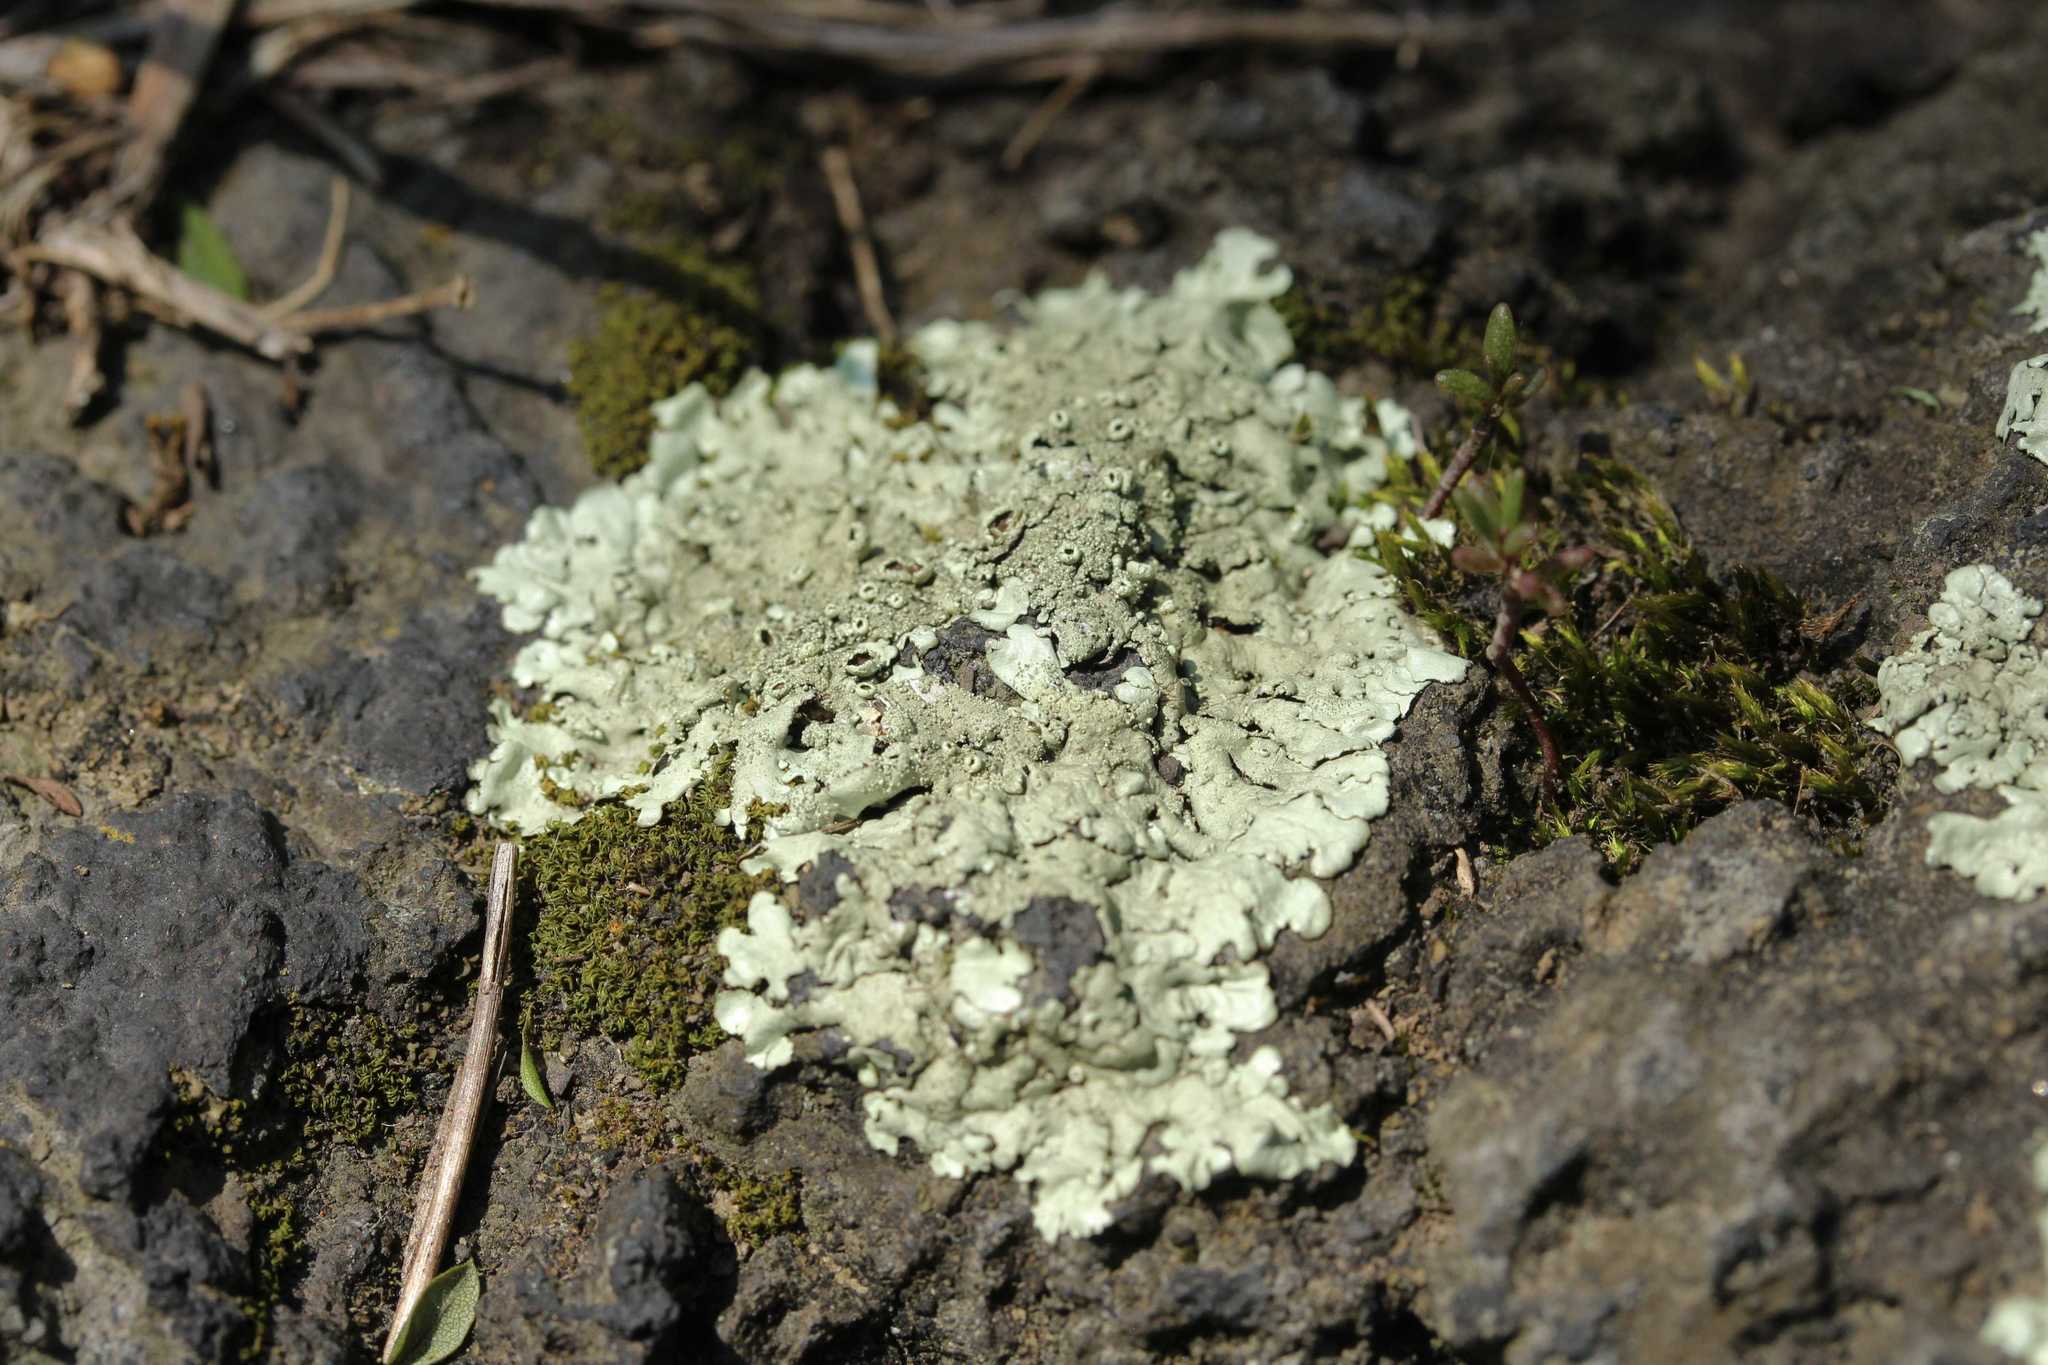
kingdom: Fungi
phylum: Ascomycota
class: Lecanoromycetes
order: Lecanorales
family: Parmeliaceae
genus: Xanthoparmelia
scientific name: Xanthoparmelia
